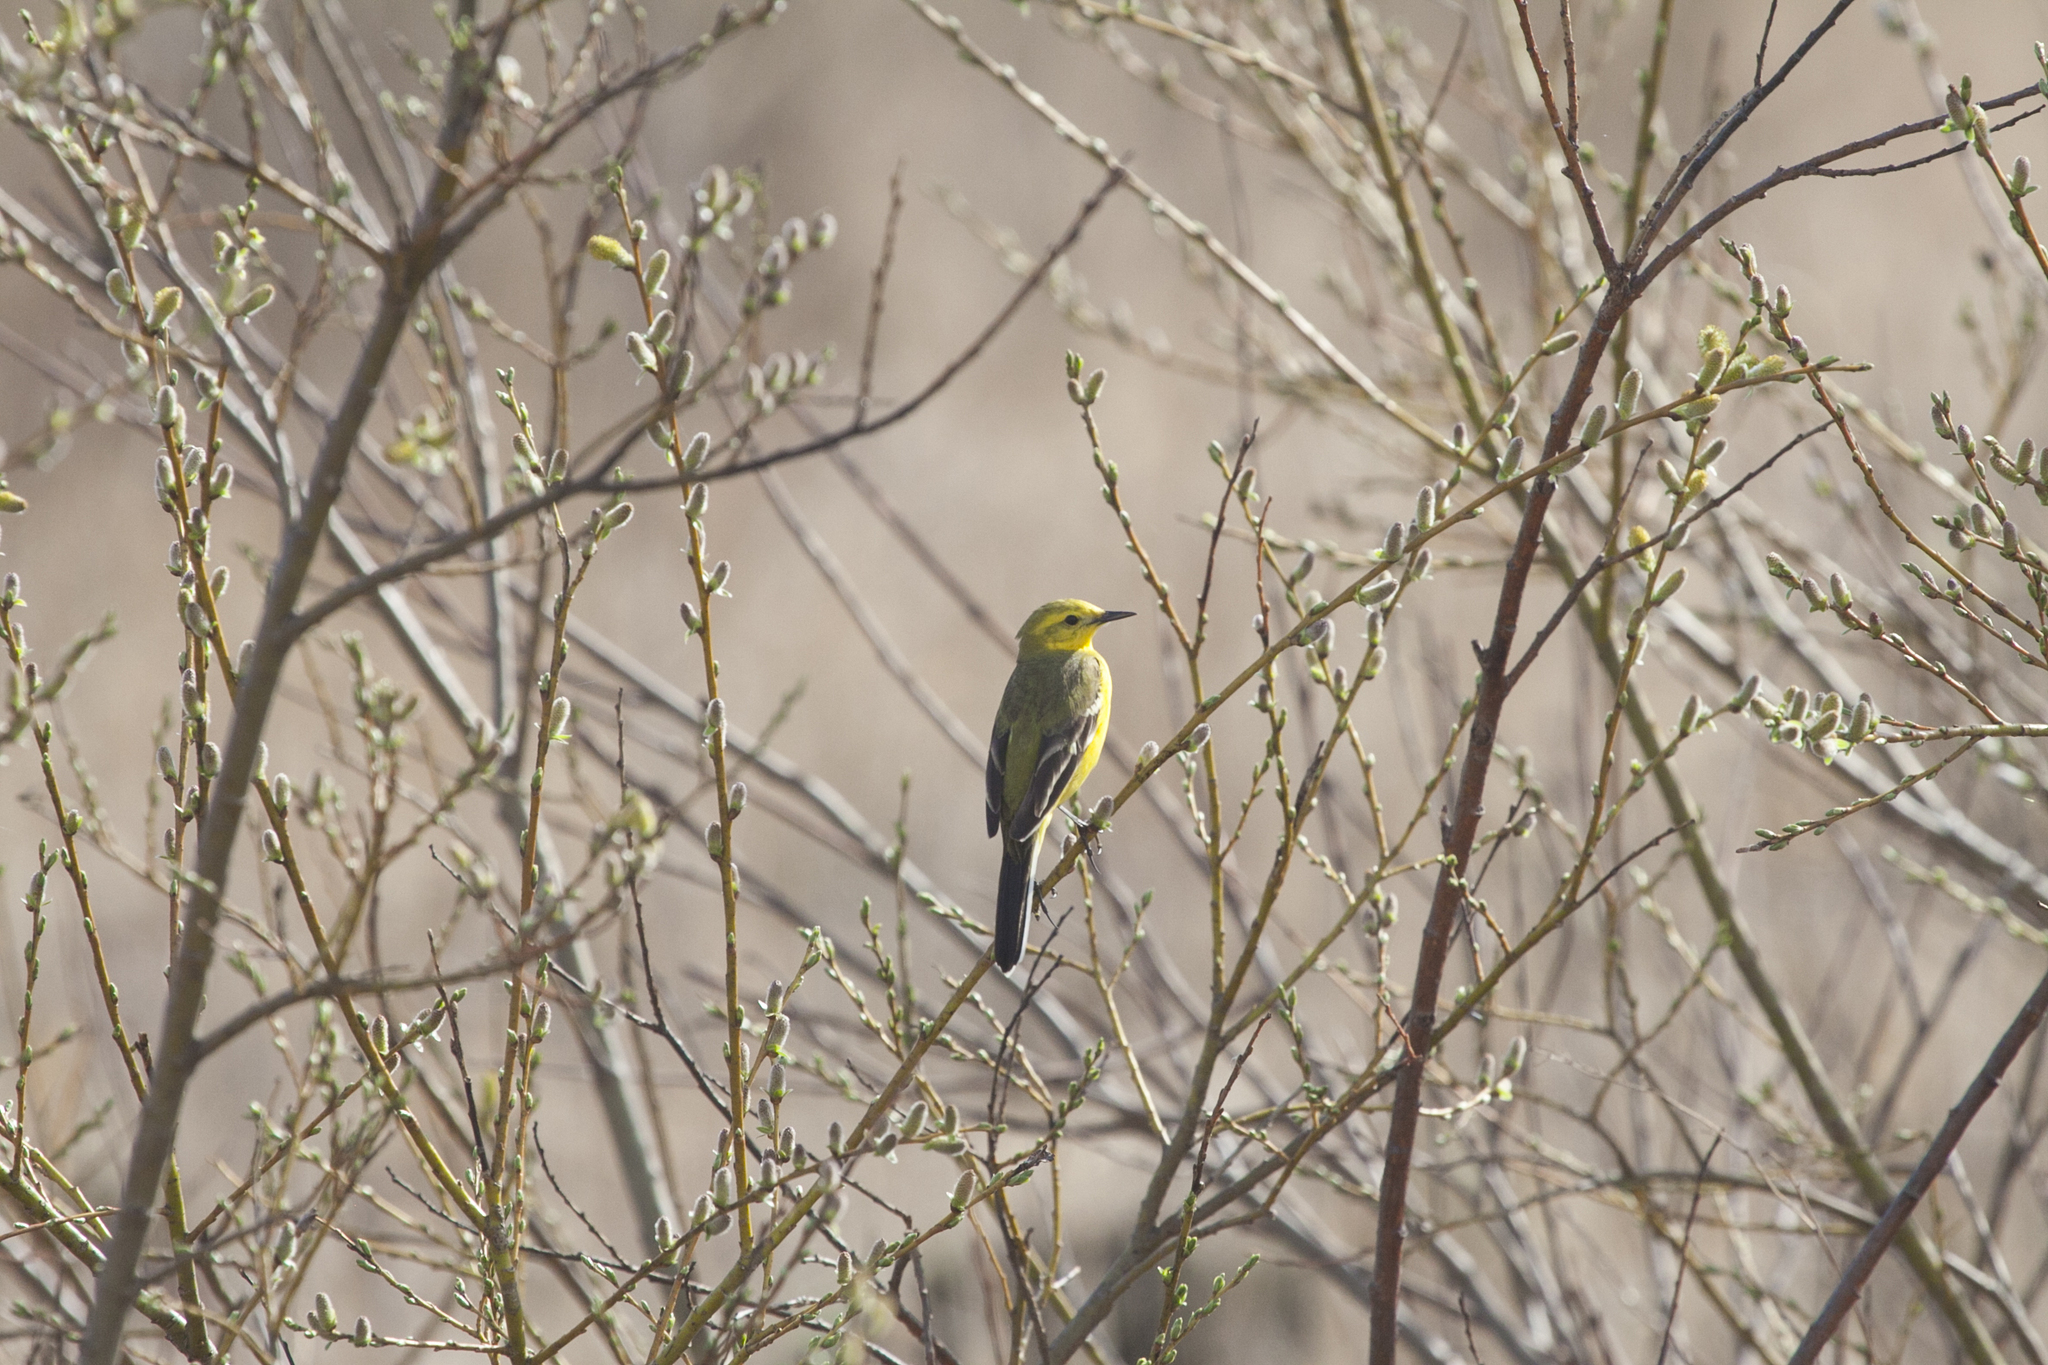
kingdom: Animalia
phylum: Chordata
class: Aves
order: Passeriformes
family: Motacillidae
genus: Motacilla
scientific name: Motacilla flava
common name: Western yellow wagtail
